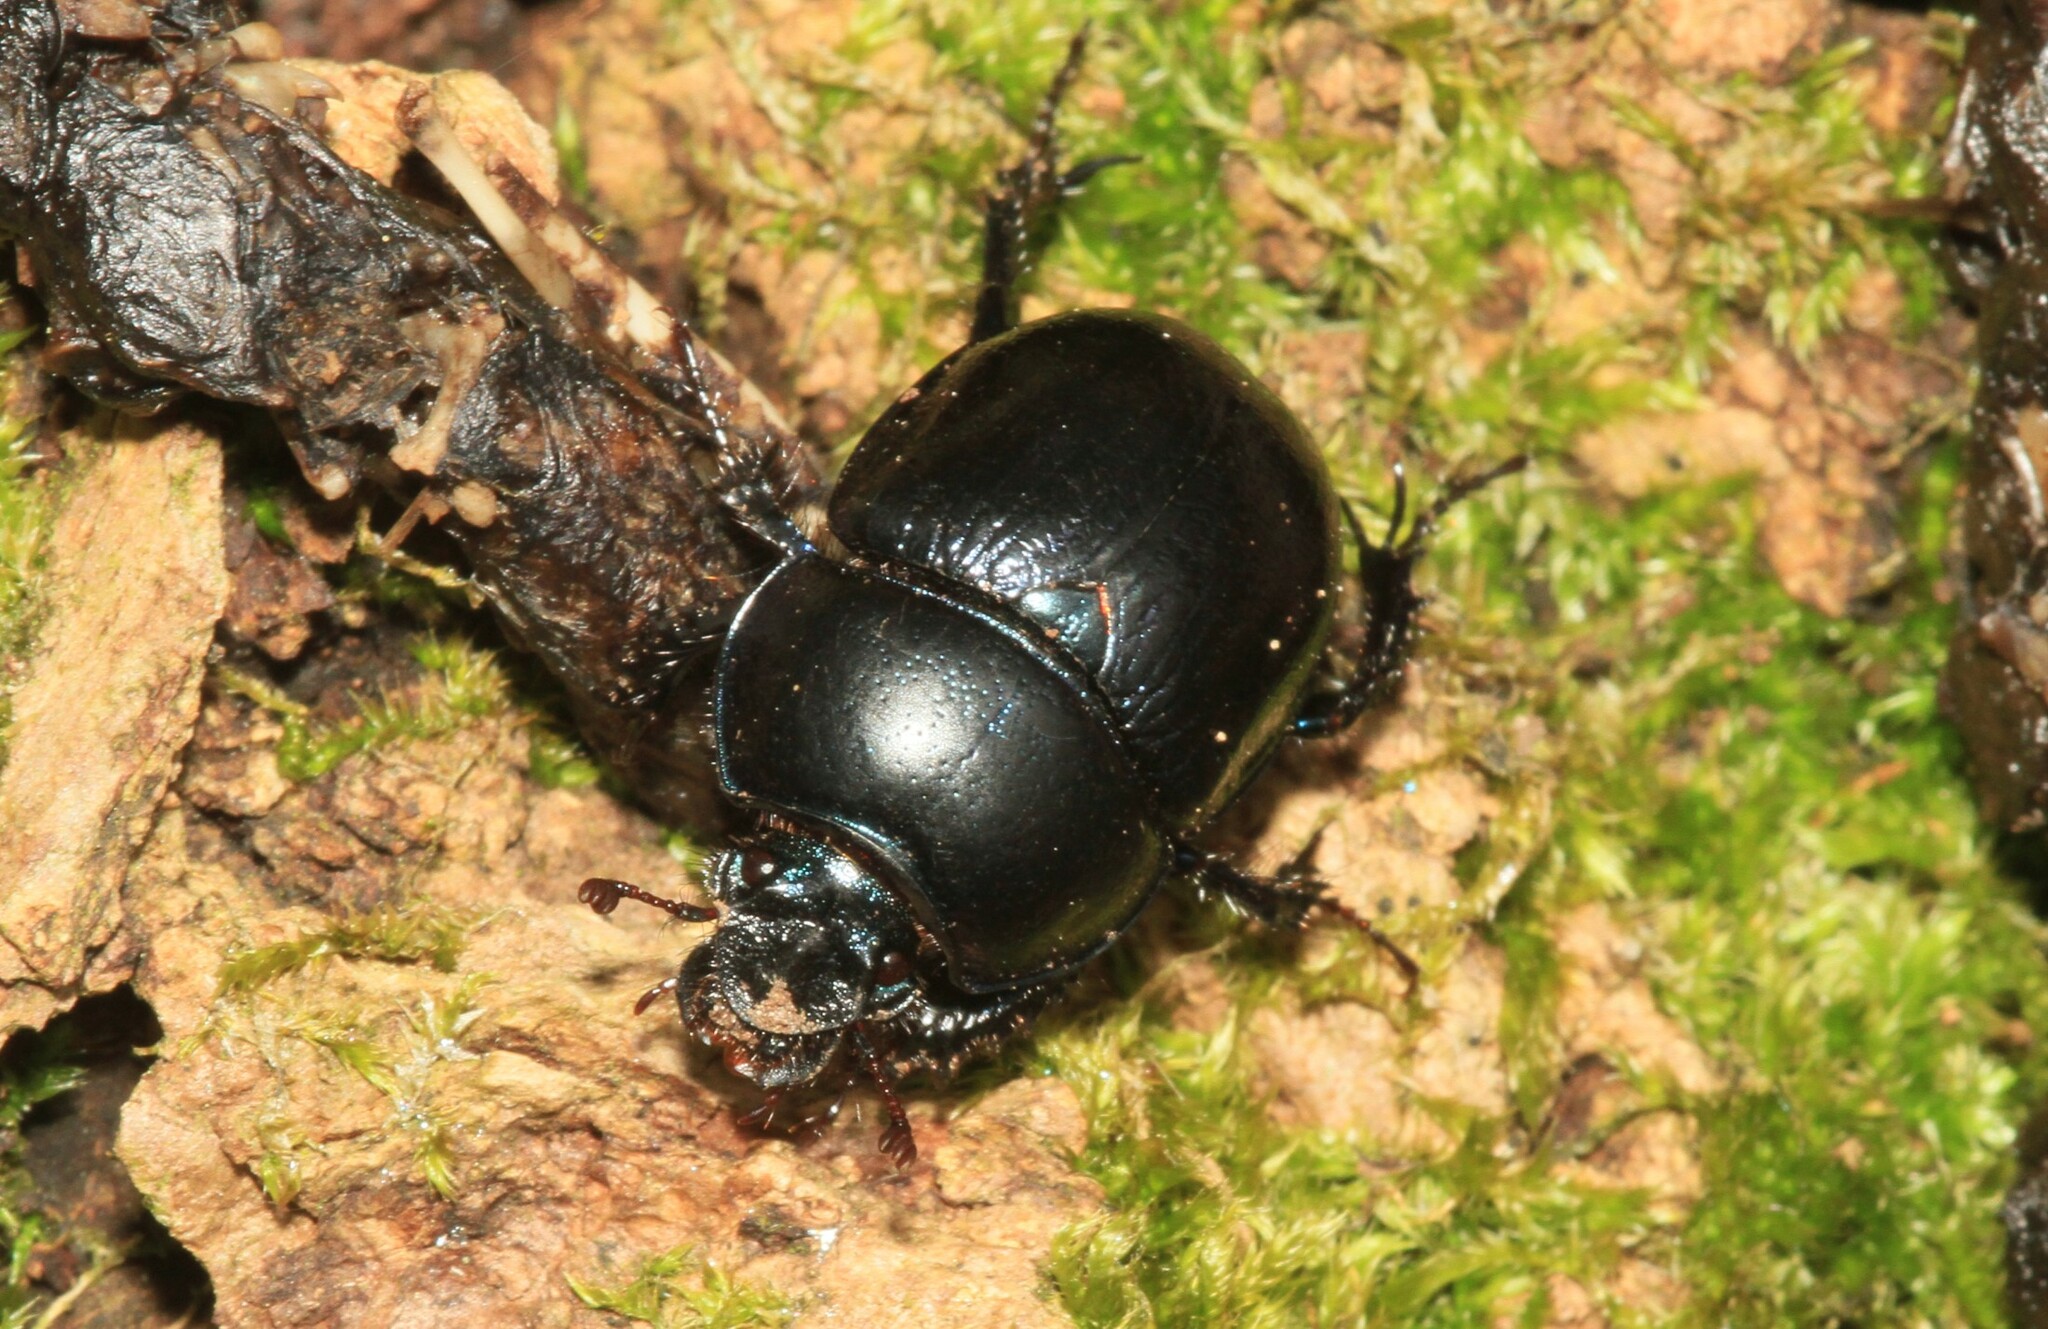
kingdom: Animalia
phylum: Arthropoda
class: Insecta
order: Coleoptera
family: Geotrupidae
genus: Anoplotrupes
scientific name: Anoplotrupes stercorosus
